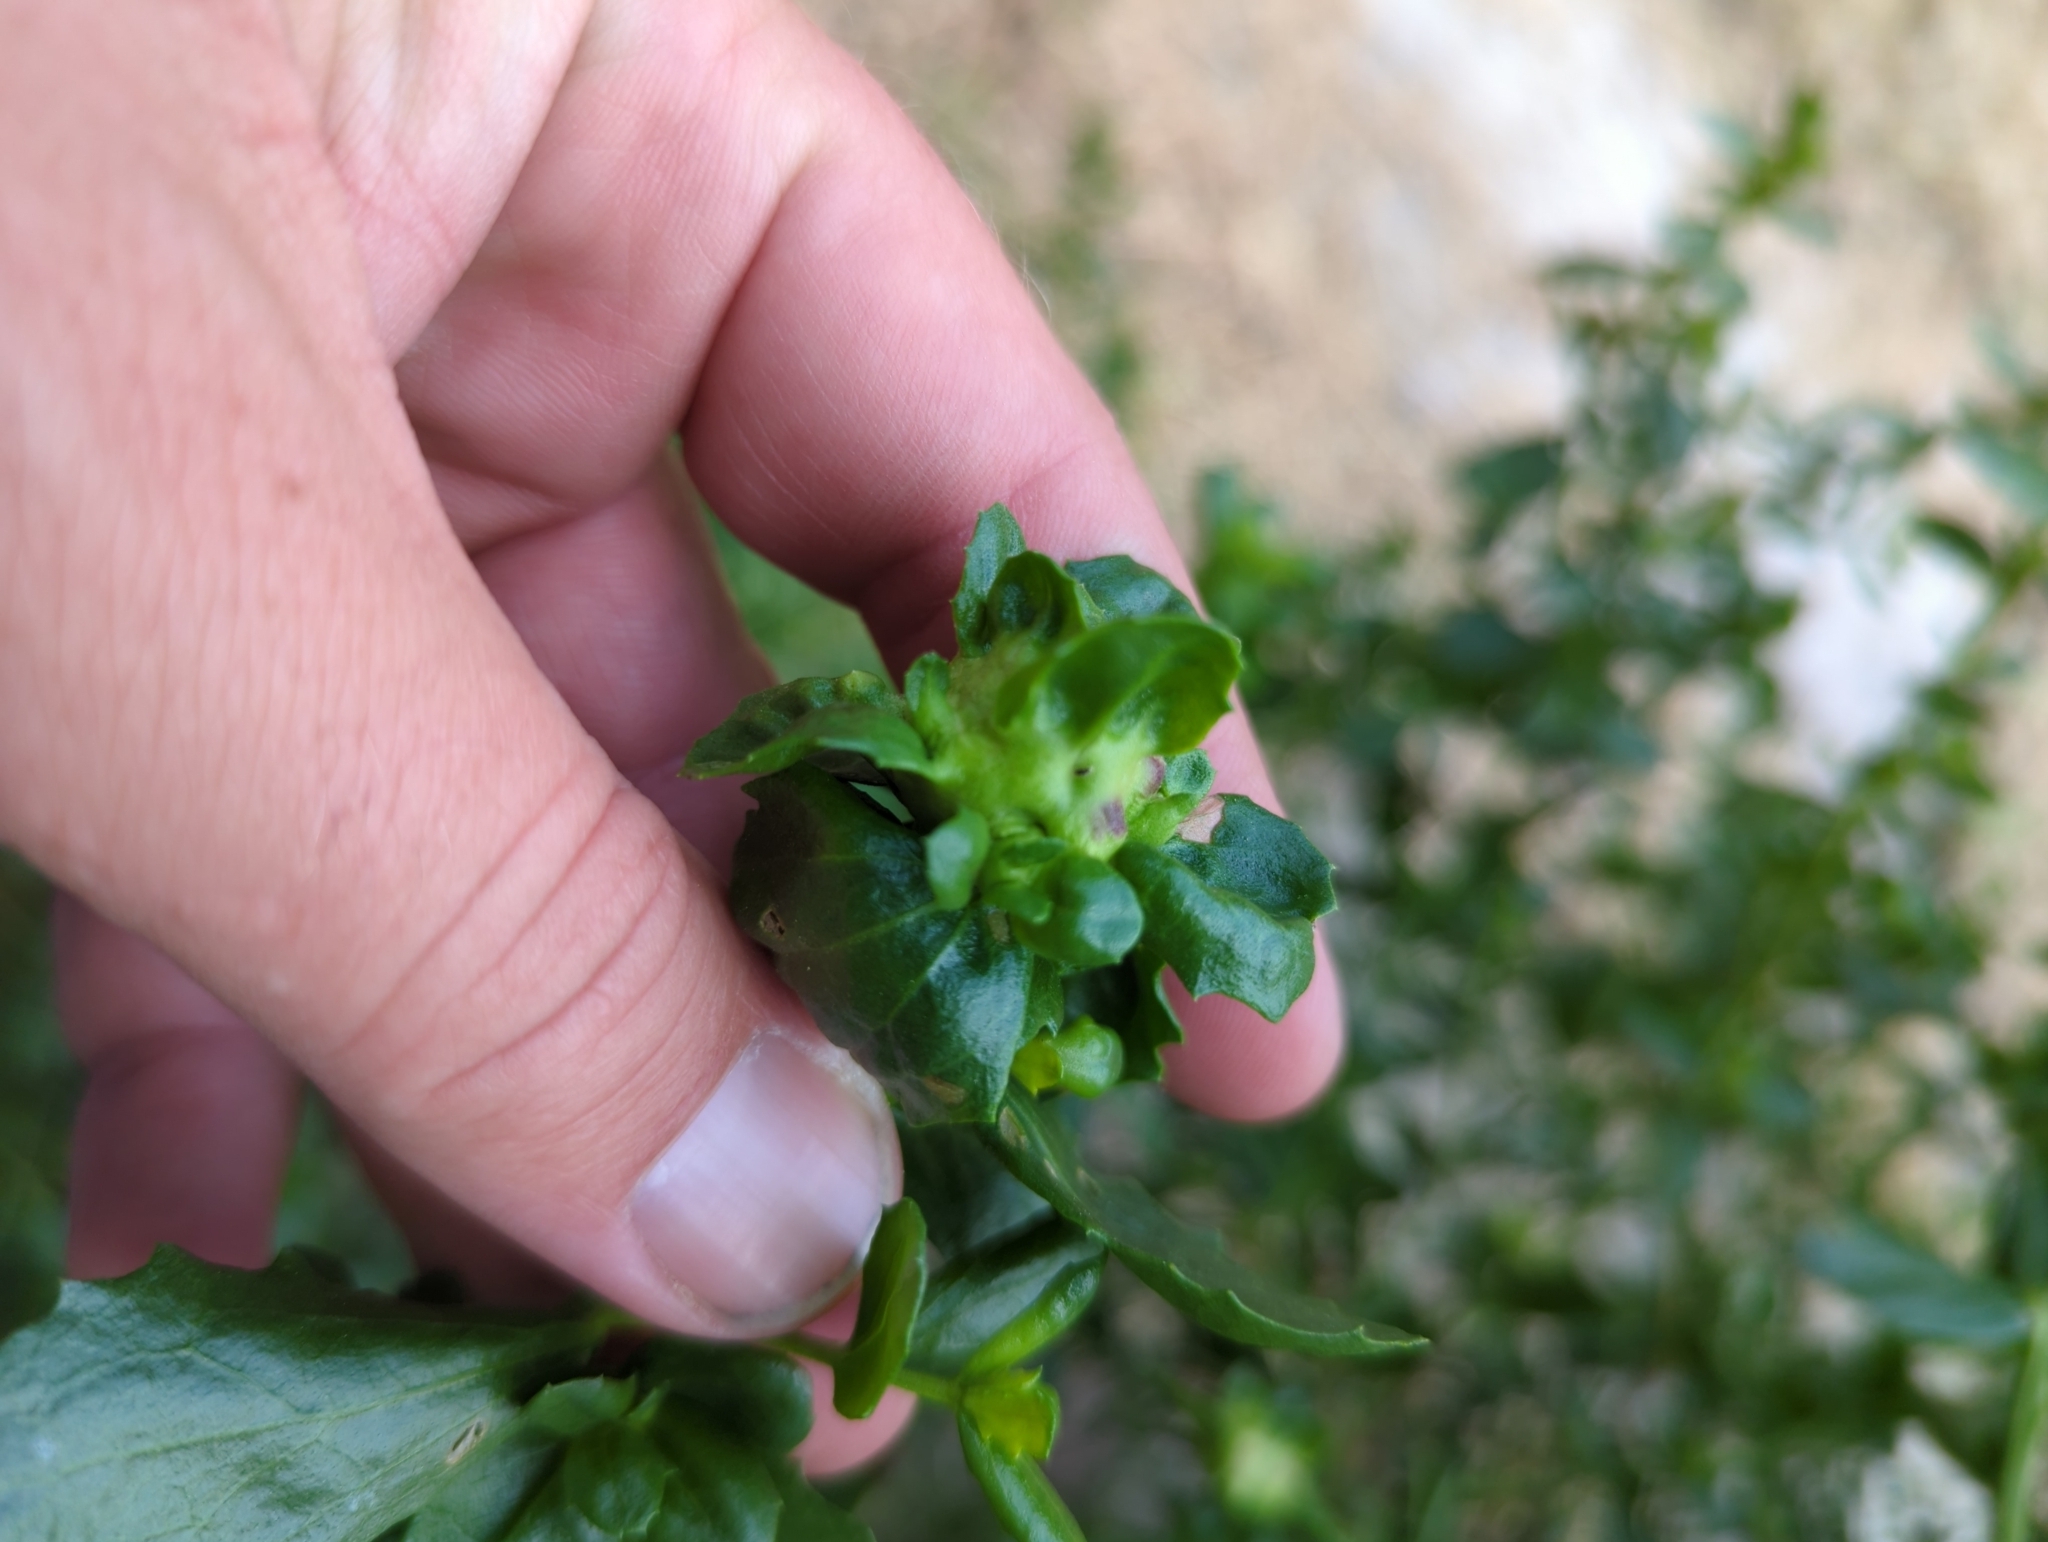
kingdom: Animalia
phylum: Arthropoda
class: Insecta
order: Diptera
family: Cecidomyiidae
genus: Rhopalomyia
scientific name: Rhopalomyia californica
